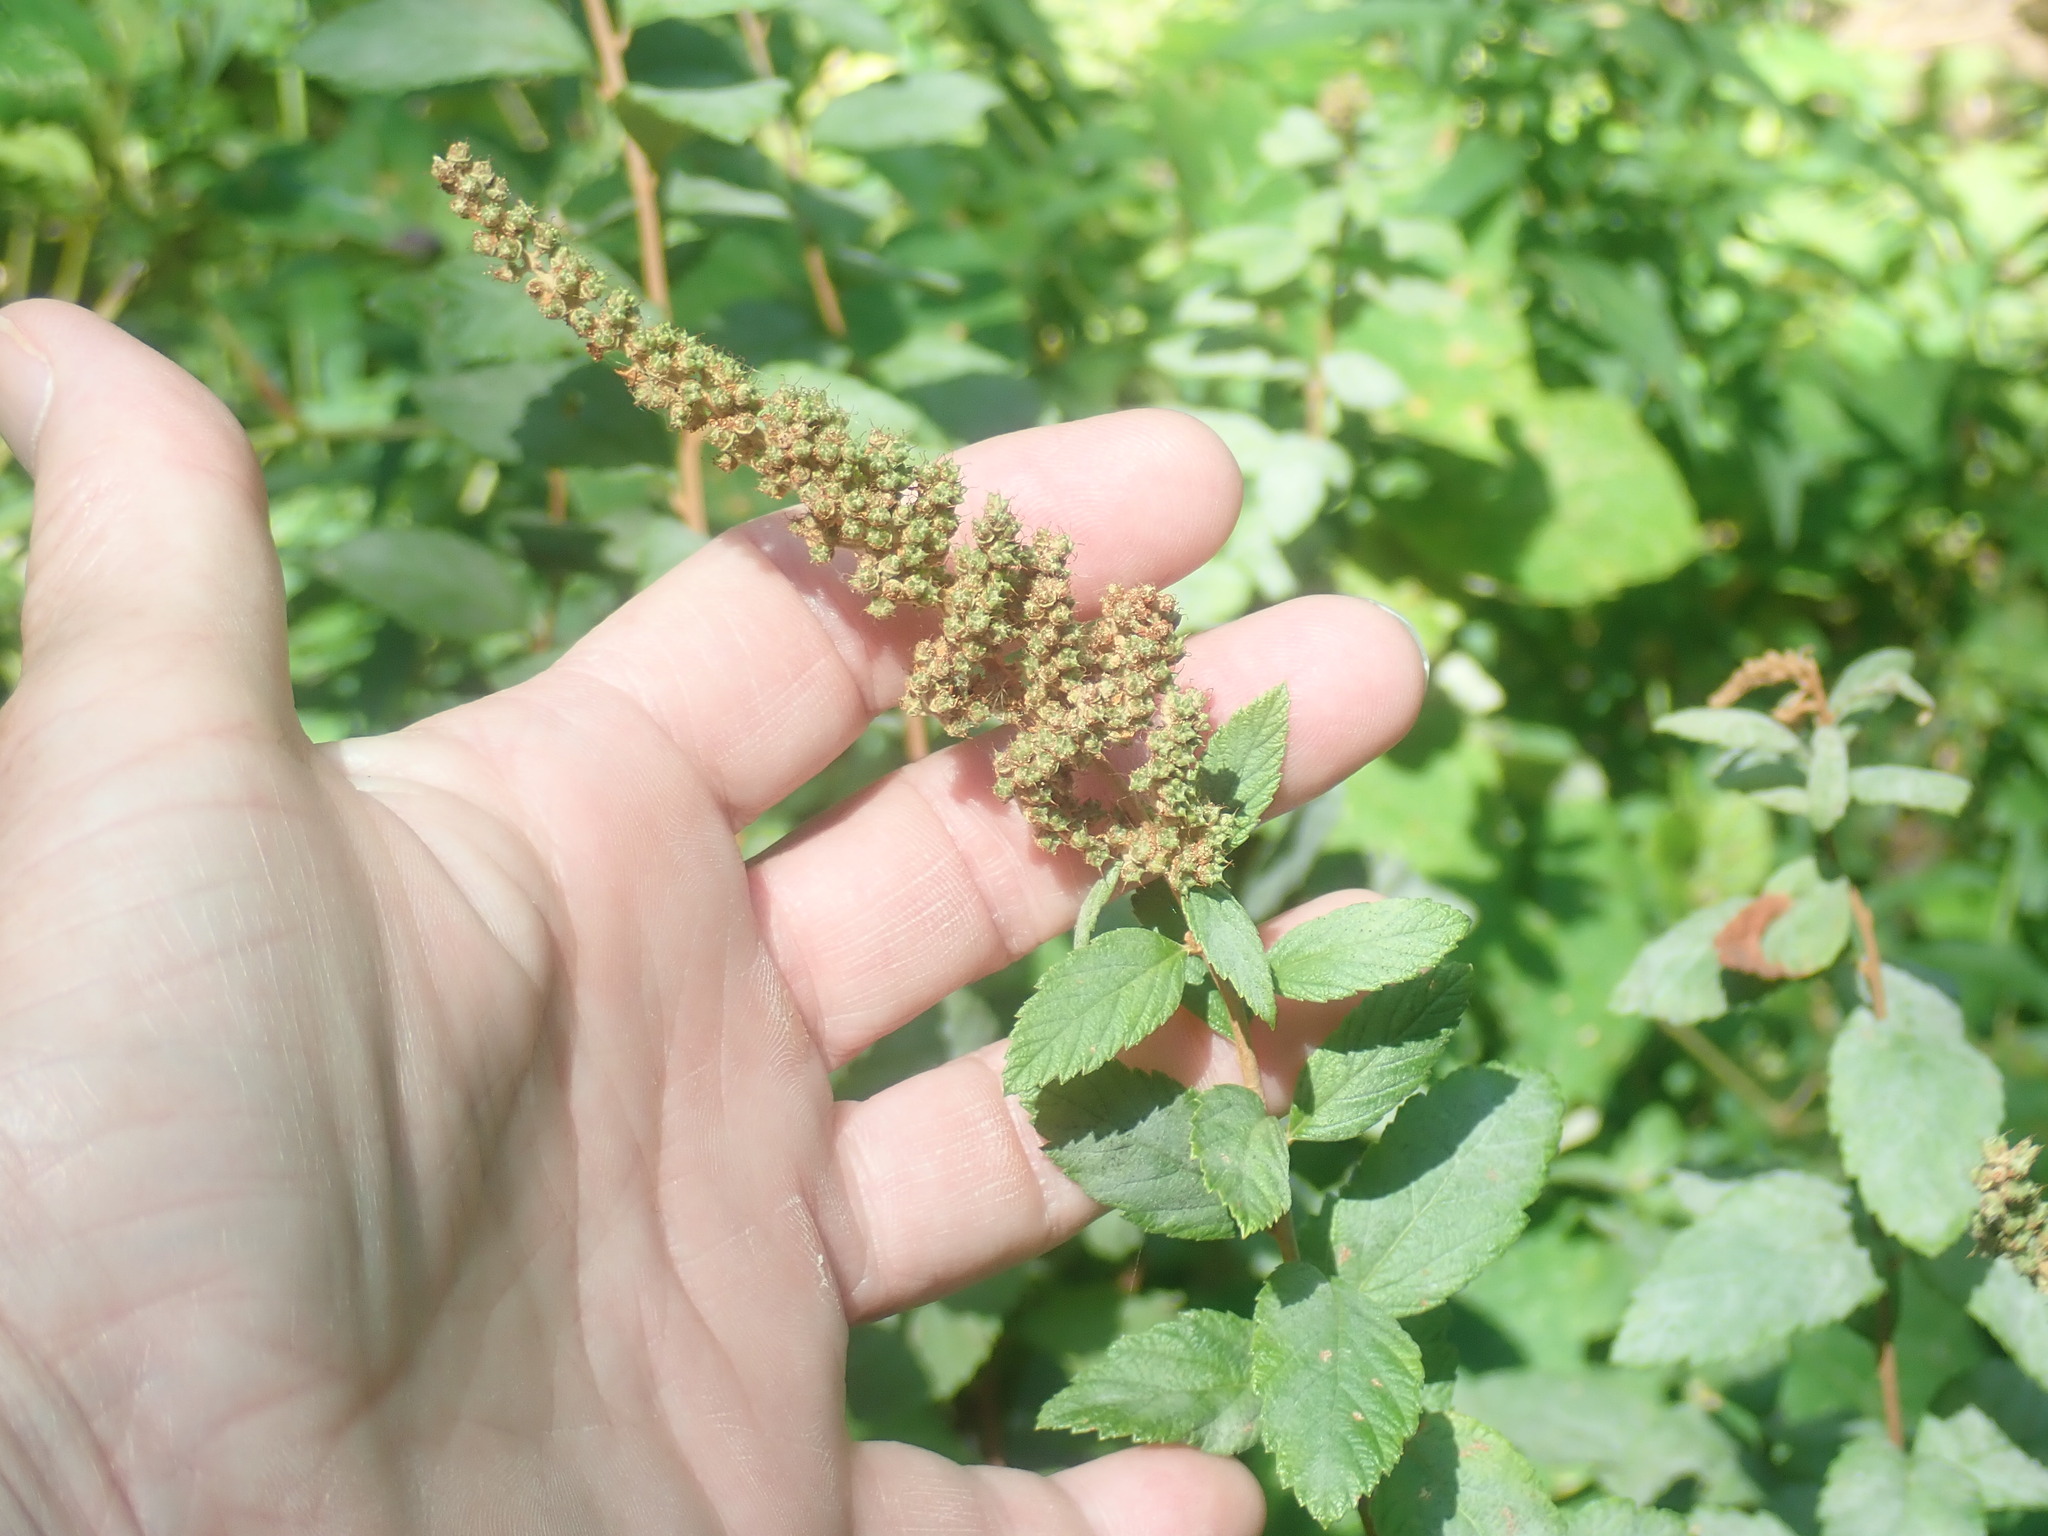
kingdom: Plantae
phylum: Tracheophyta
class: Magnoliopsida
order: Rosales
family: Rosaceae
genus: Spiraea
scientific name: Spiraea tomentosa
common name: Hardhack
